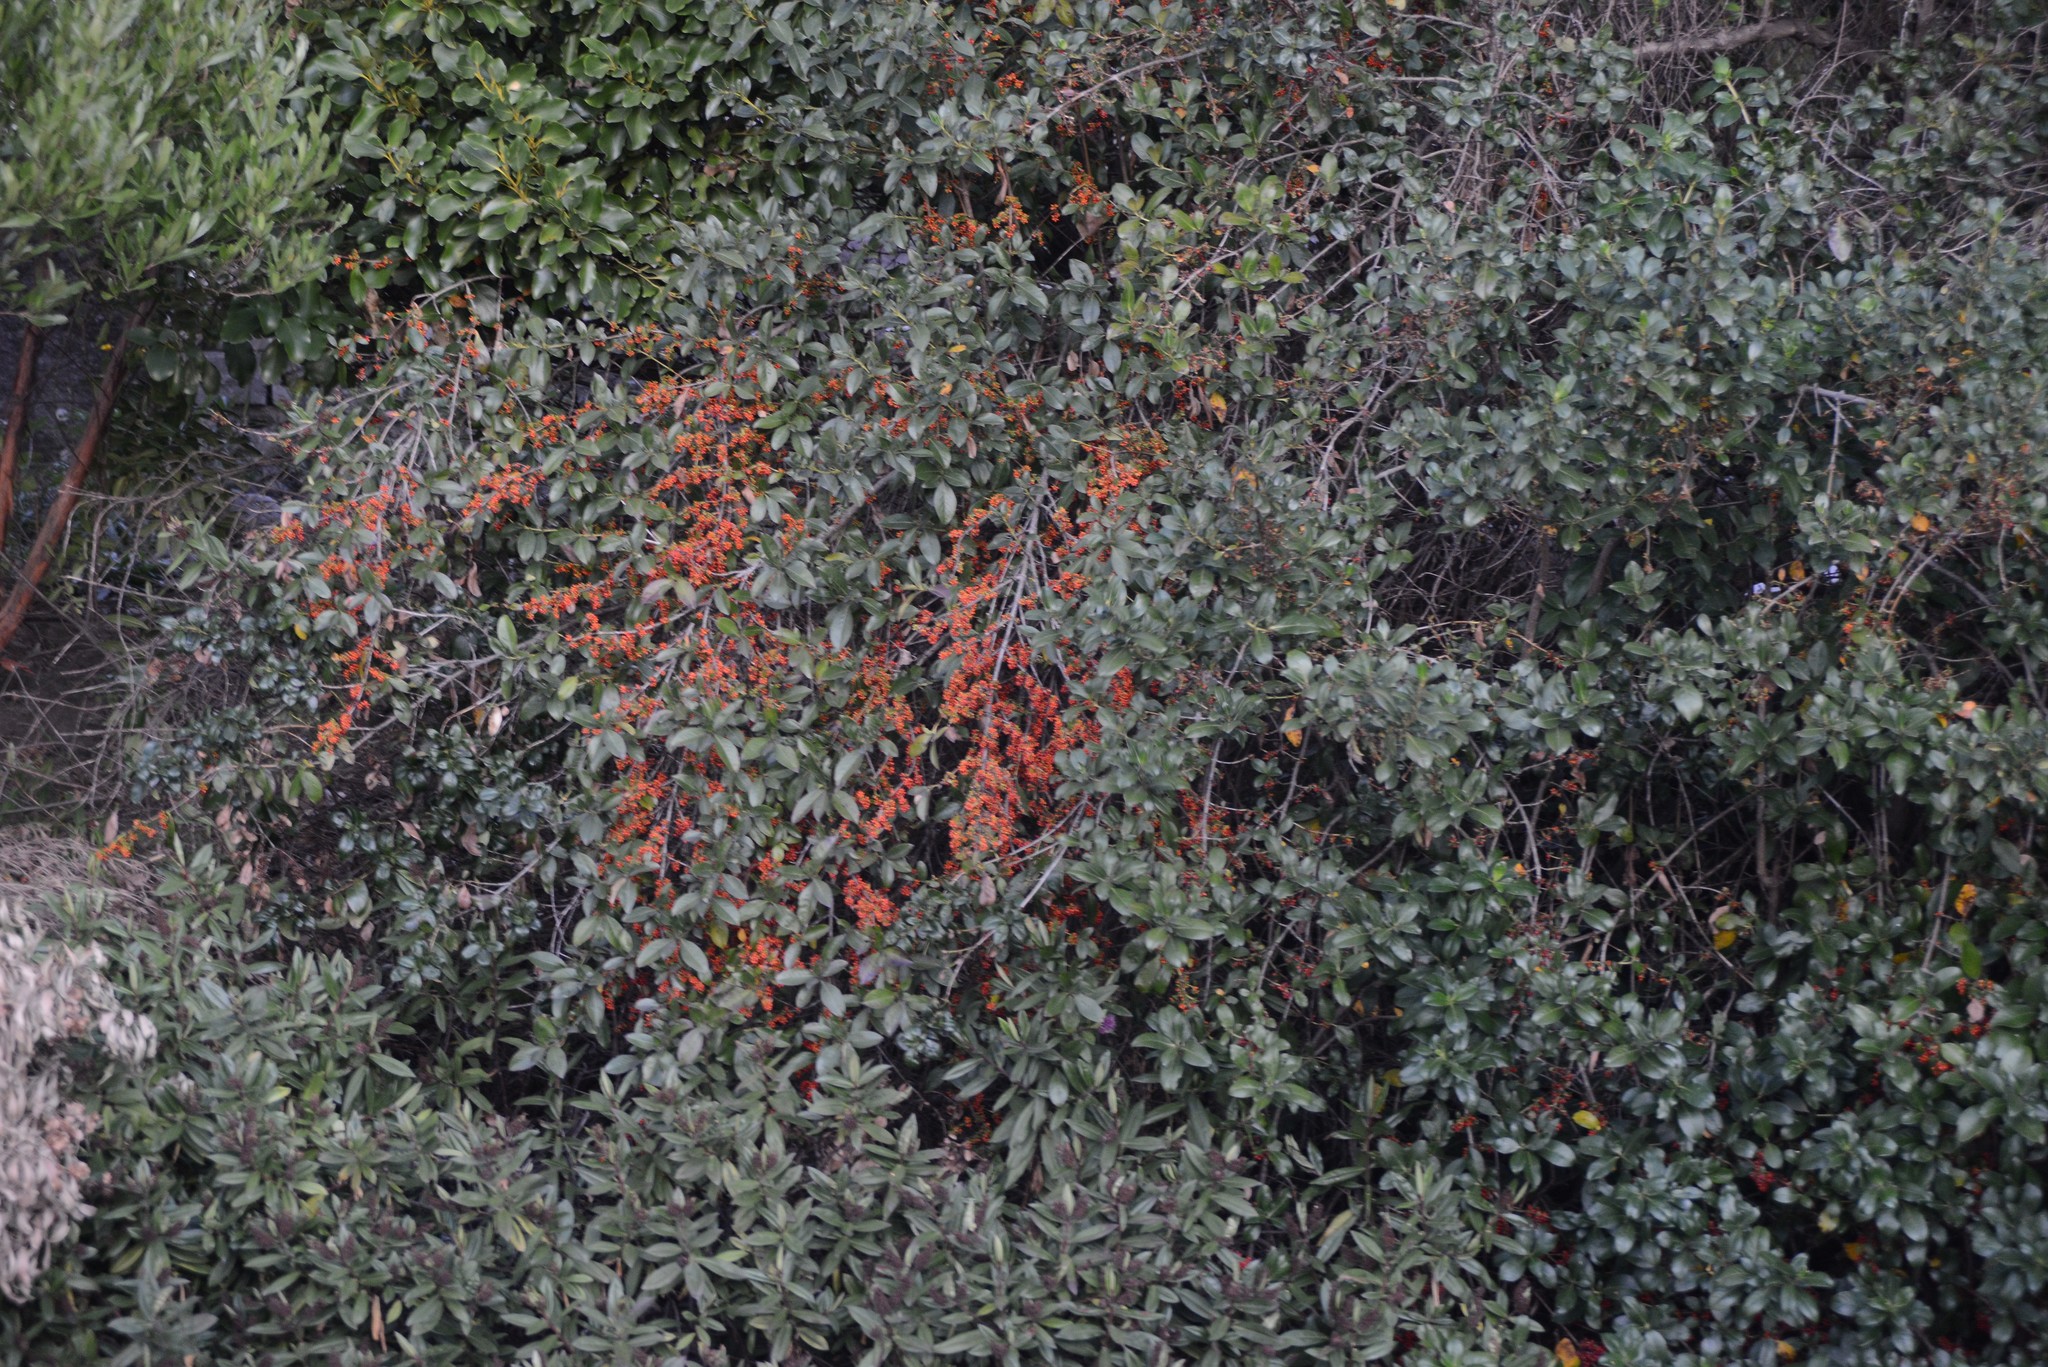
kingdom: Plantae
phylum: Tracheophyta
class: Magnoliopsida
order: Gentianales
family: Rubiaceae
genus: Coprosma
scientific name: Coprosma robusta
